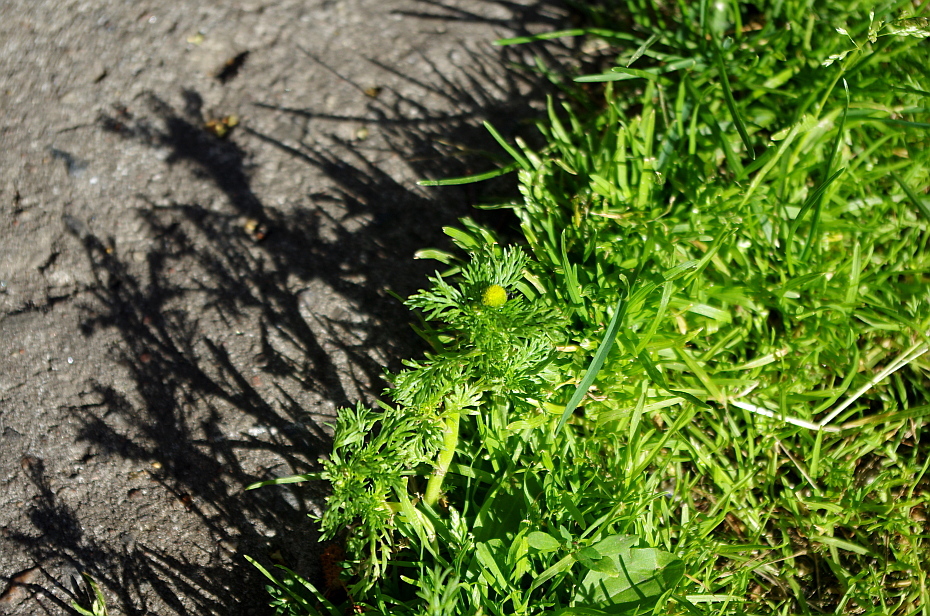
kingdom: Plantae
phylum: Tracheophyta
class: Magnoliopsida
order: Asterales
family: Asteraceae
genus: Matricaria
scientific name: Matricaria discoidea
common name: Disc mayweed
